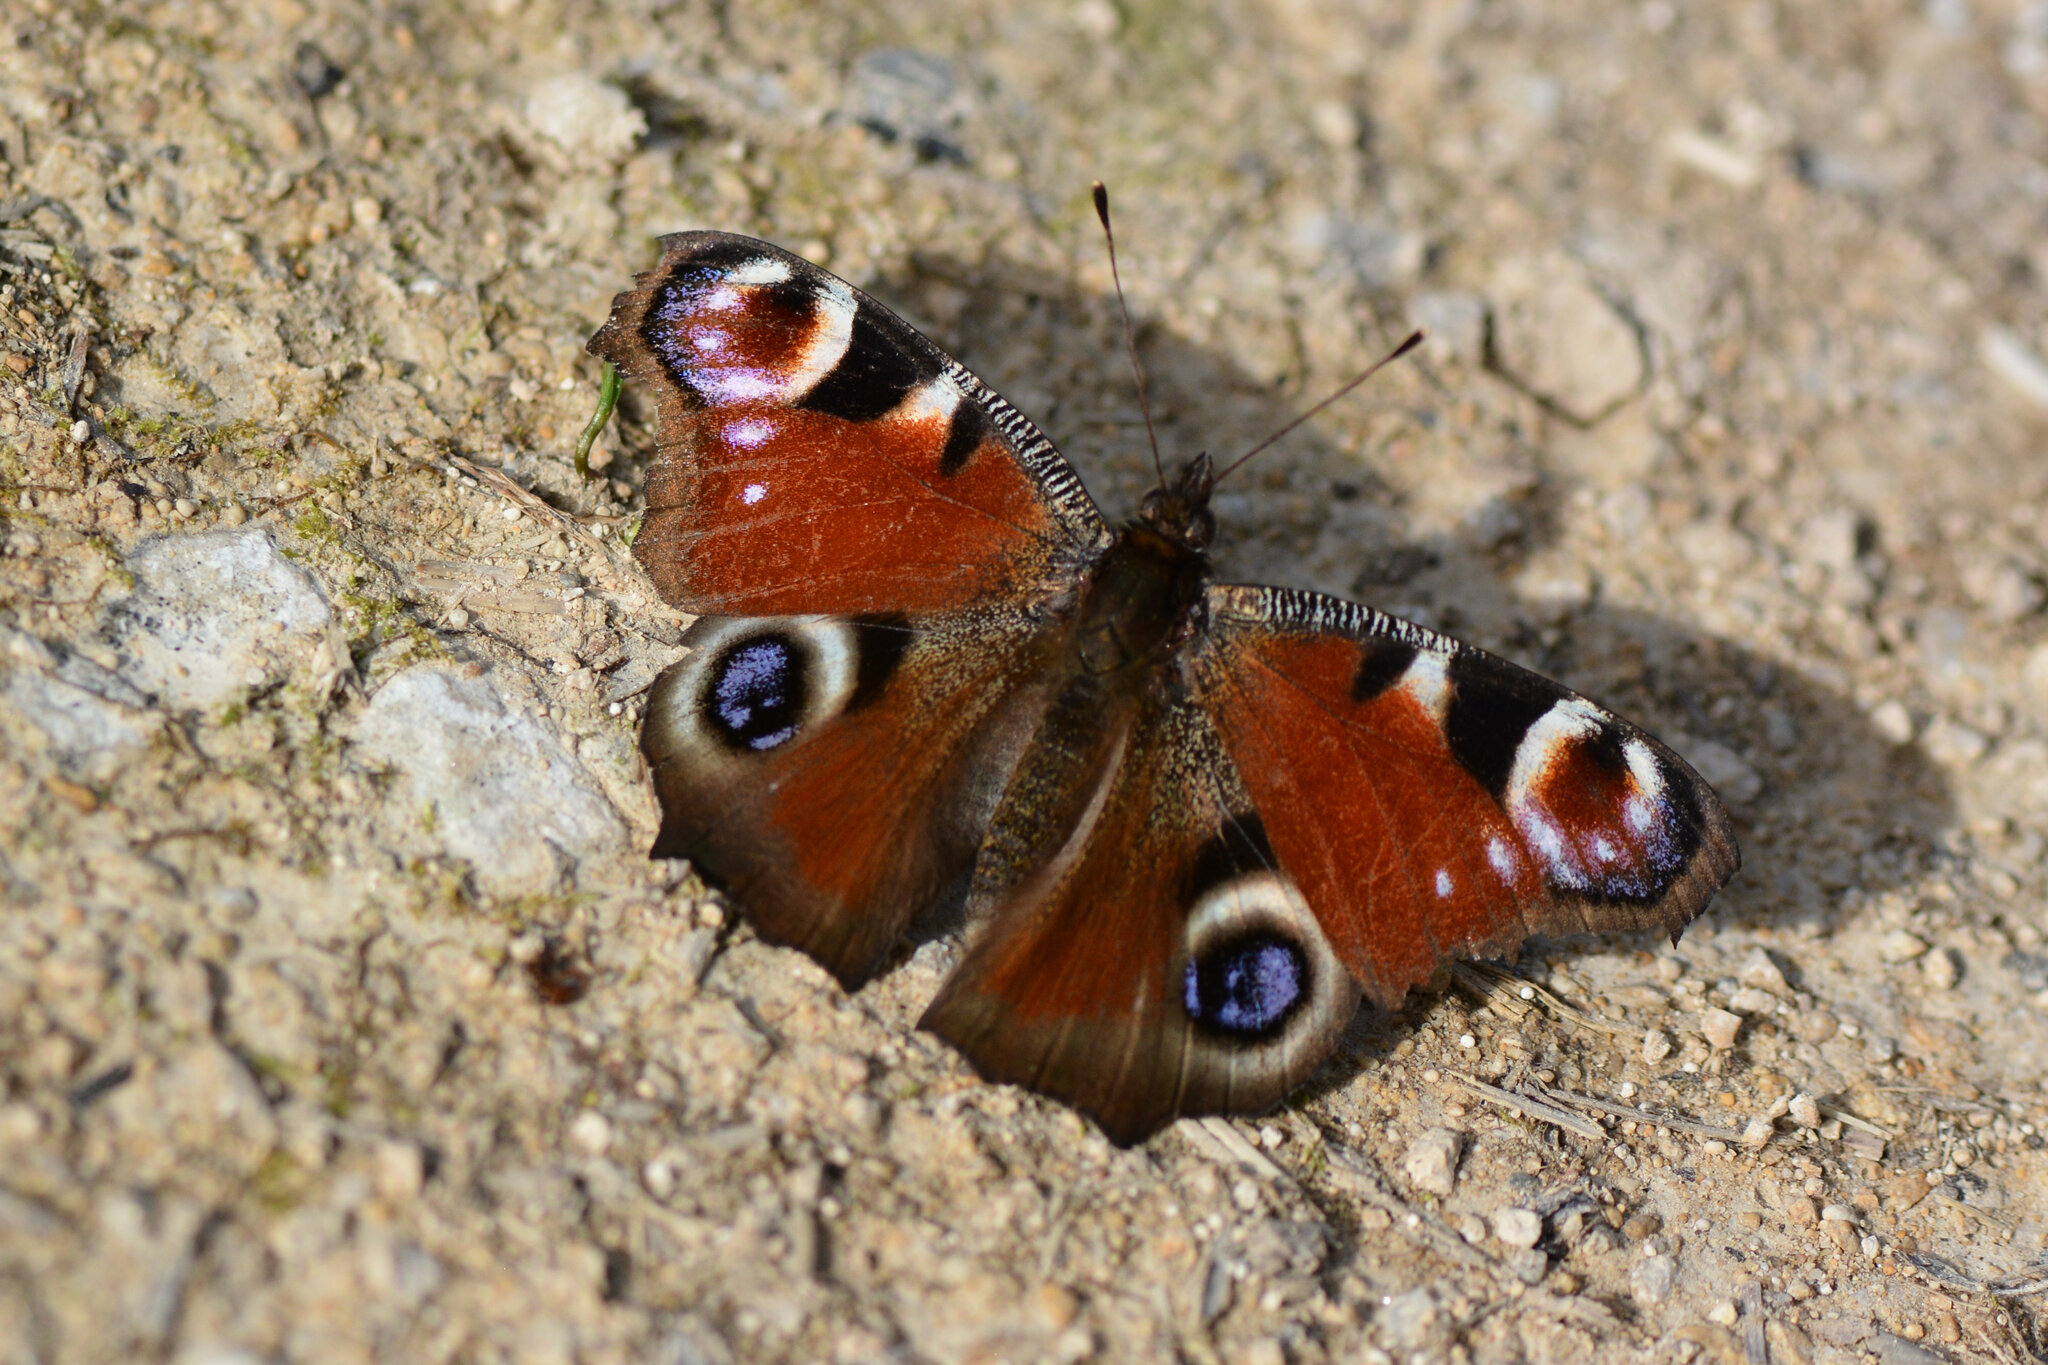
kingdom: Animalia
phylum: Arthropoda
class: Insecta
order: Lepidoptera
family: Nymphalidae
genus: Aglais
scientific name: Aglais io
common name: Peacock
